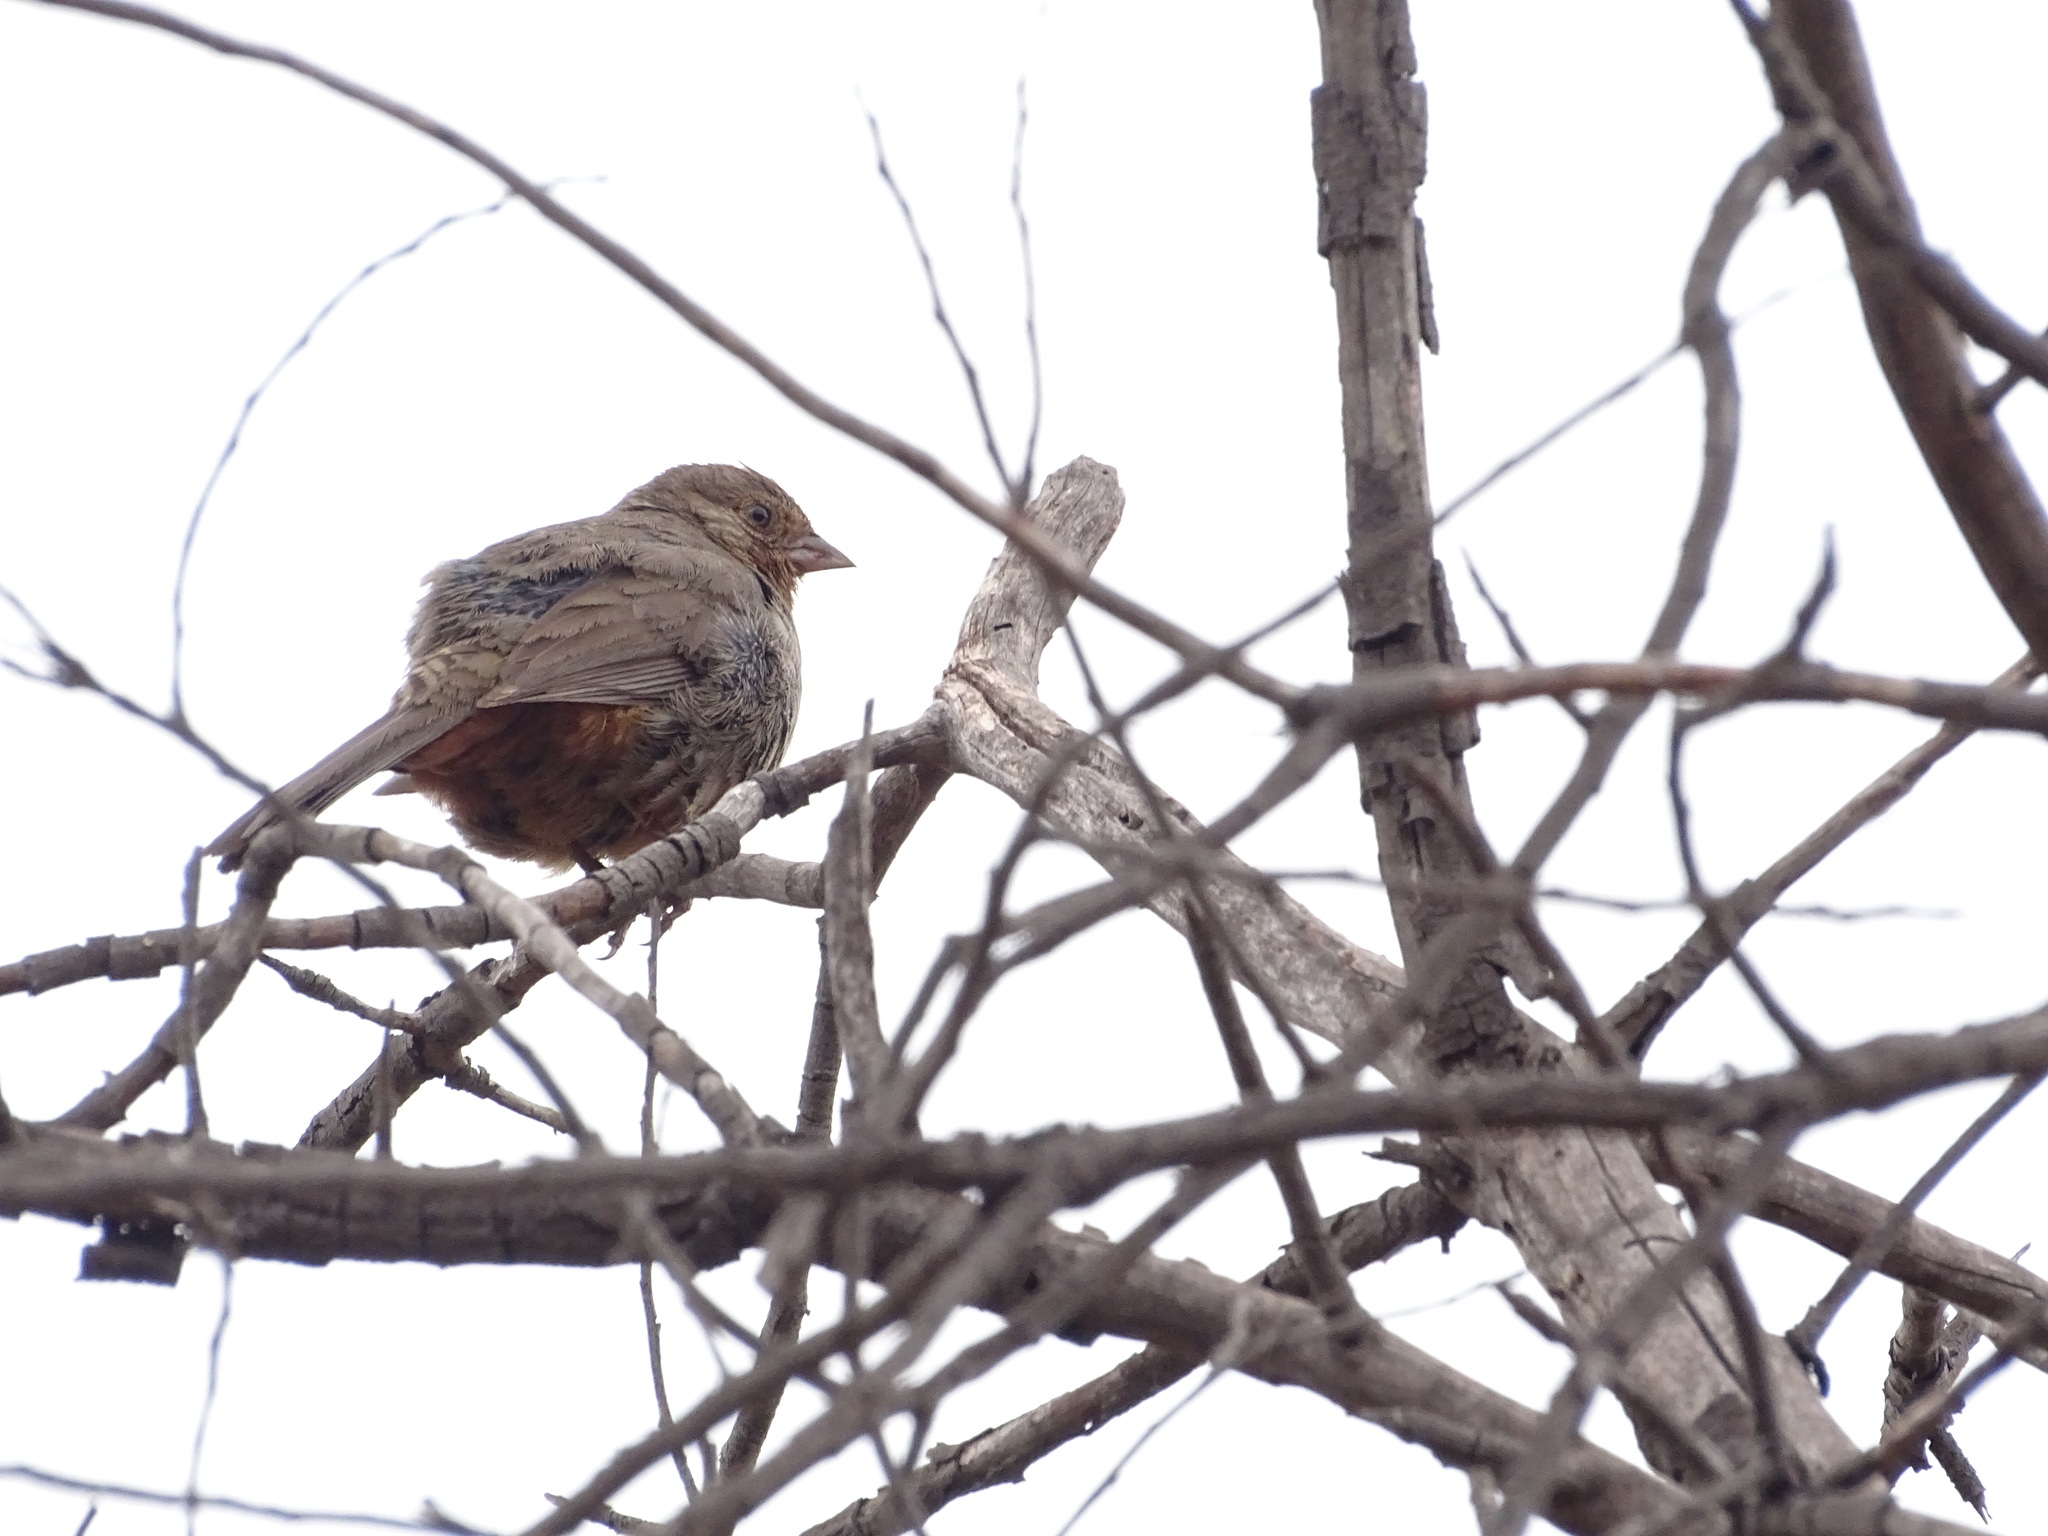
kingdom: Animalia
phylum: Chordata
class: Aves
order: Passeriformes
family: Passerellidae
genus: Melozone
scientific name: Melozone crissalis
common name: California towhee
